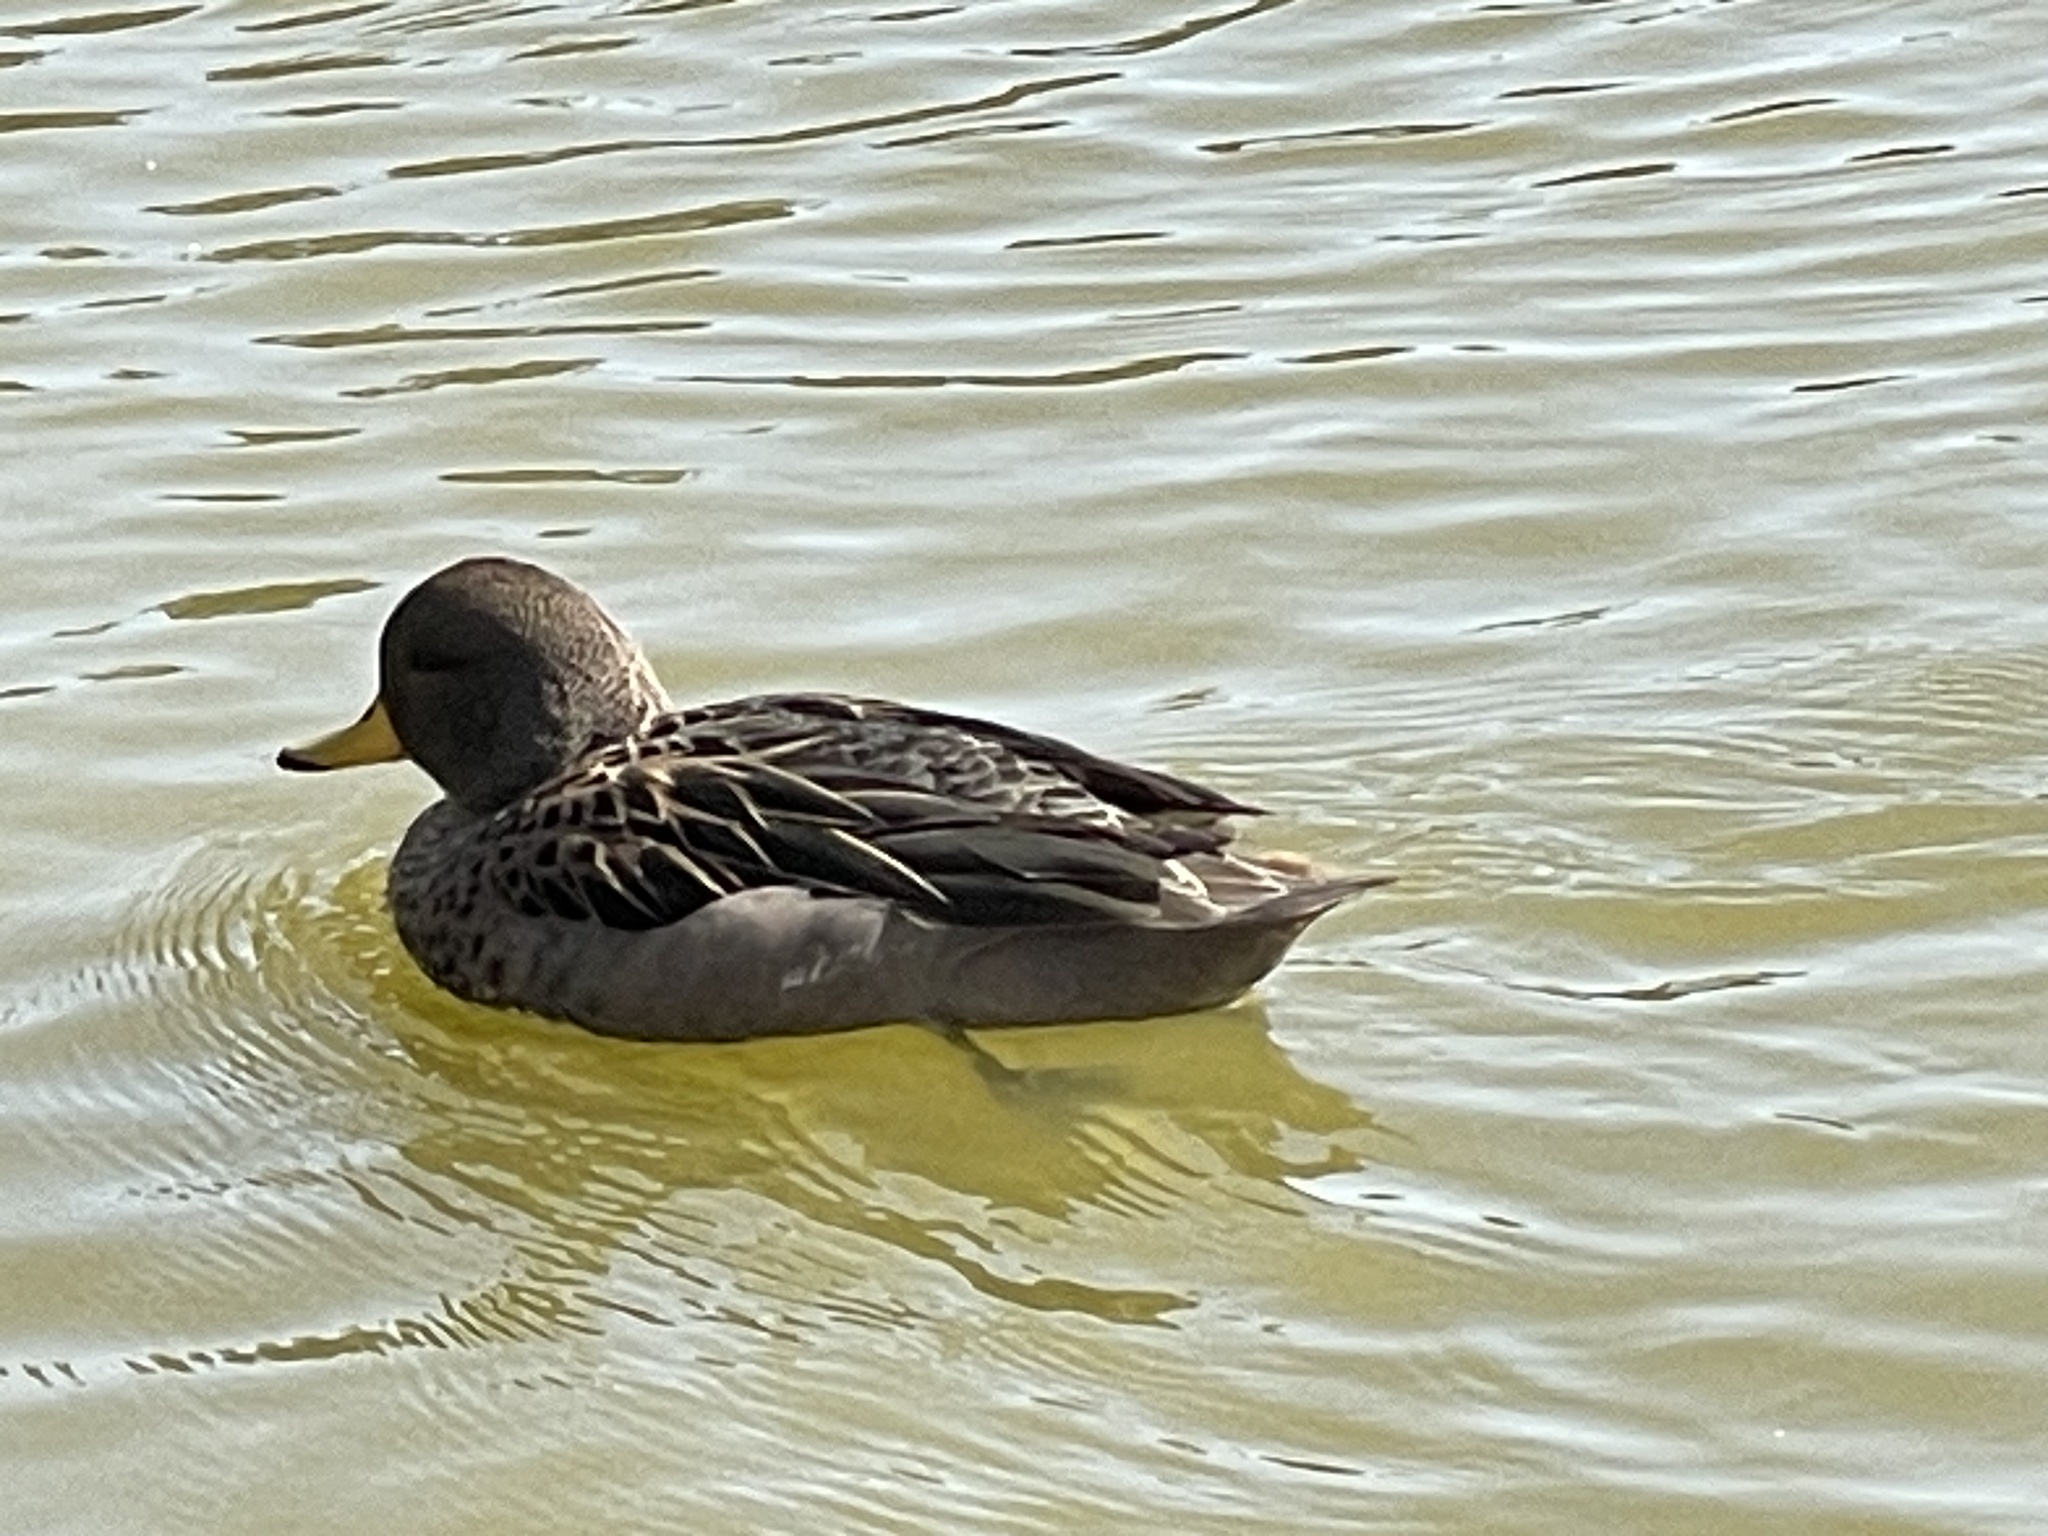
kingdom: Animalia
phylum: Chordata
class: Aves
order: Anseriformes
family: Anatidae
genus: Anas
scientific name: Anas flavirostris
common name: Yellow-billed teal
